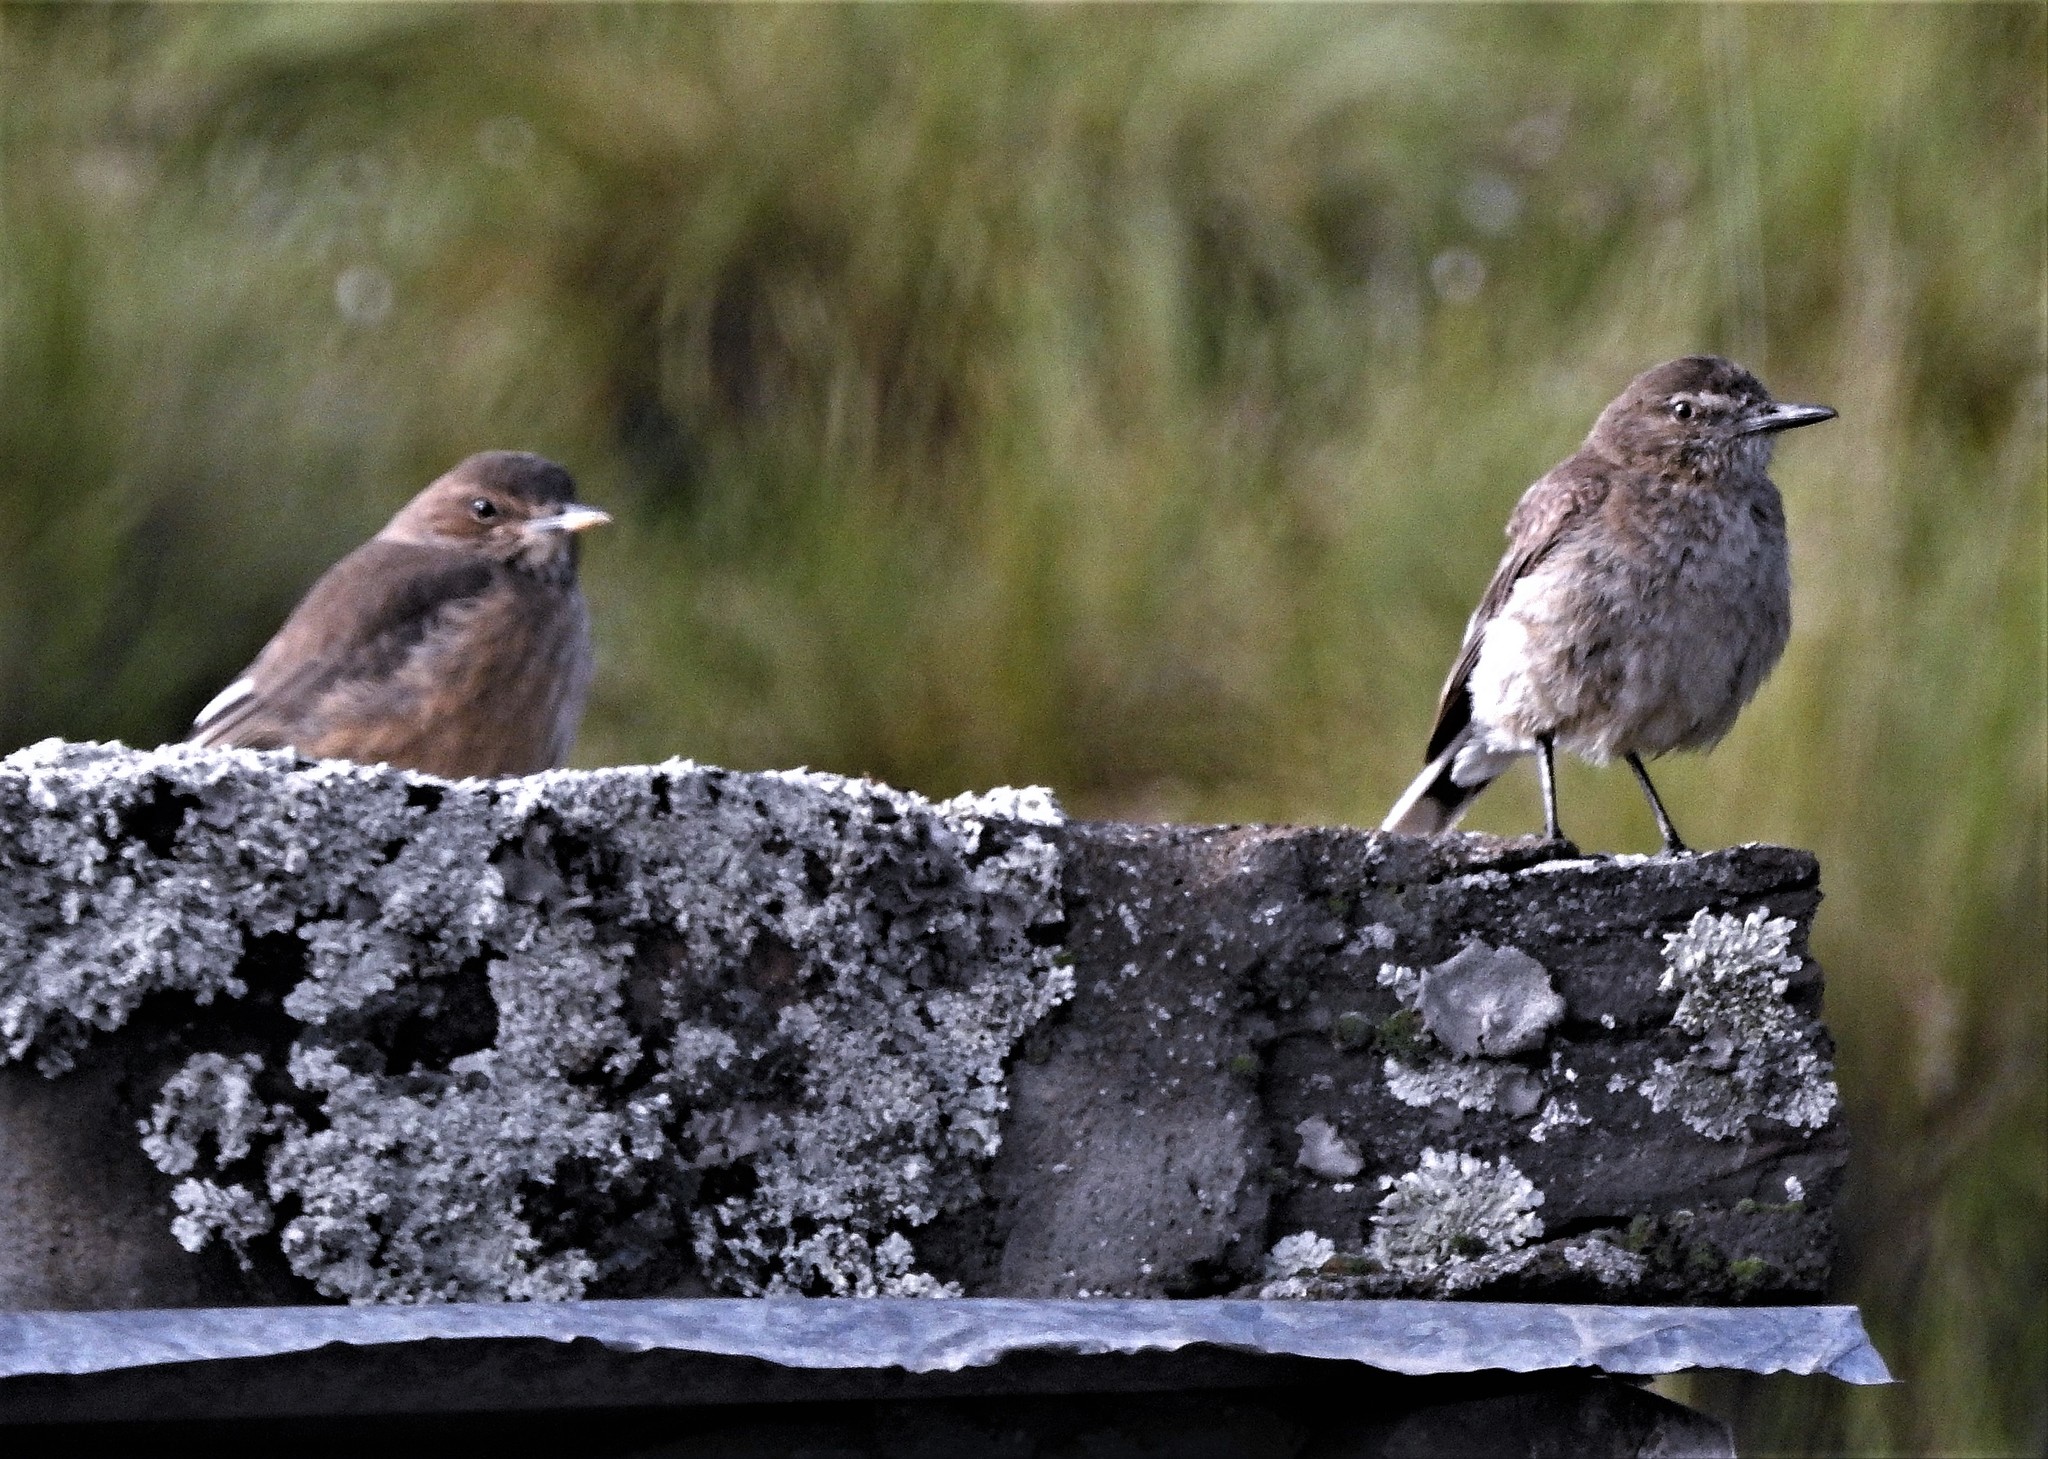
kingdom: Animalia
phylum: Chordata
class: Aves
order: Passeriformes
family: Tyrannidae
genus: Agriornis
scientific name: Agriornis montanus
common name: Black-billed shrike-tyrant
